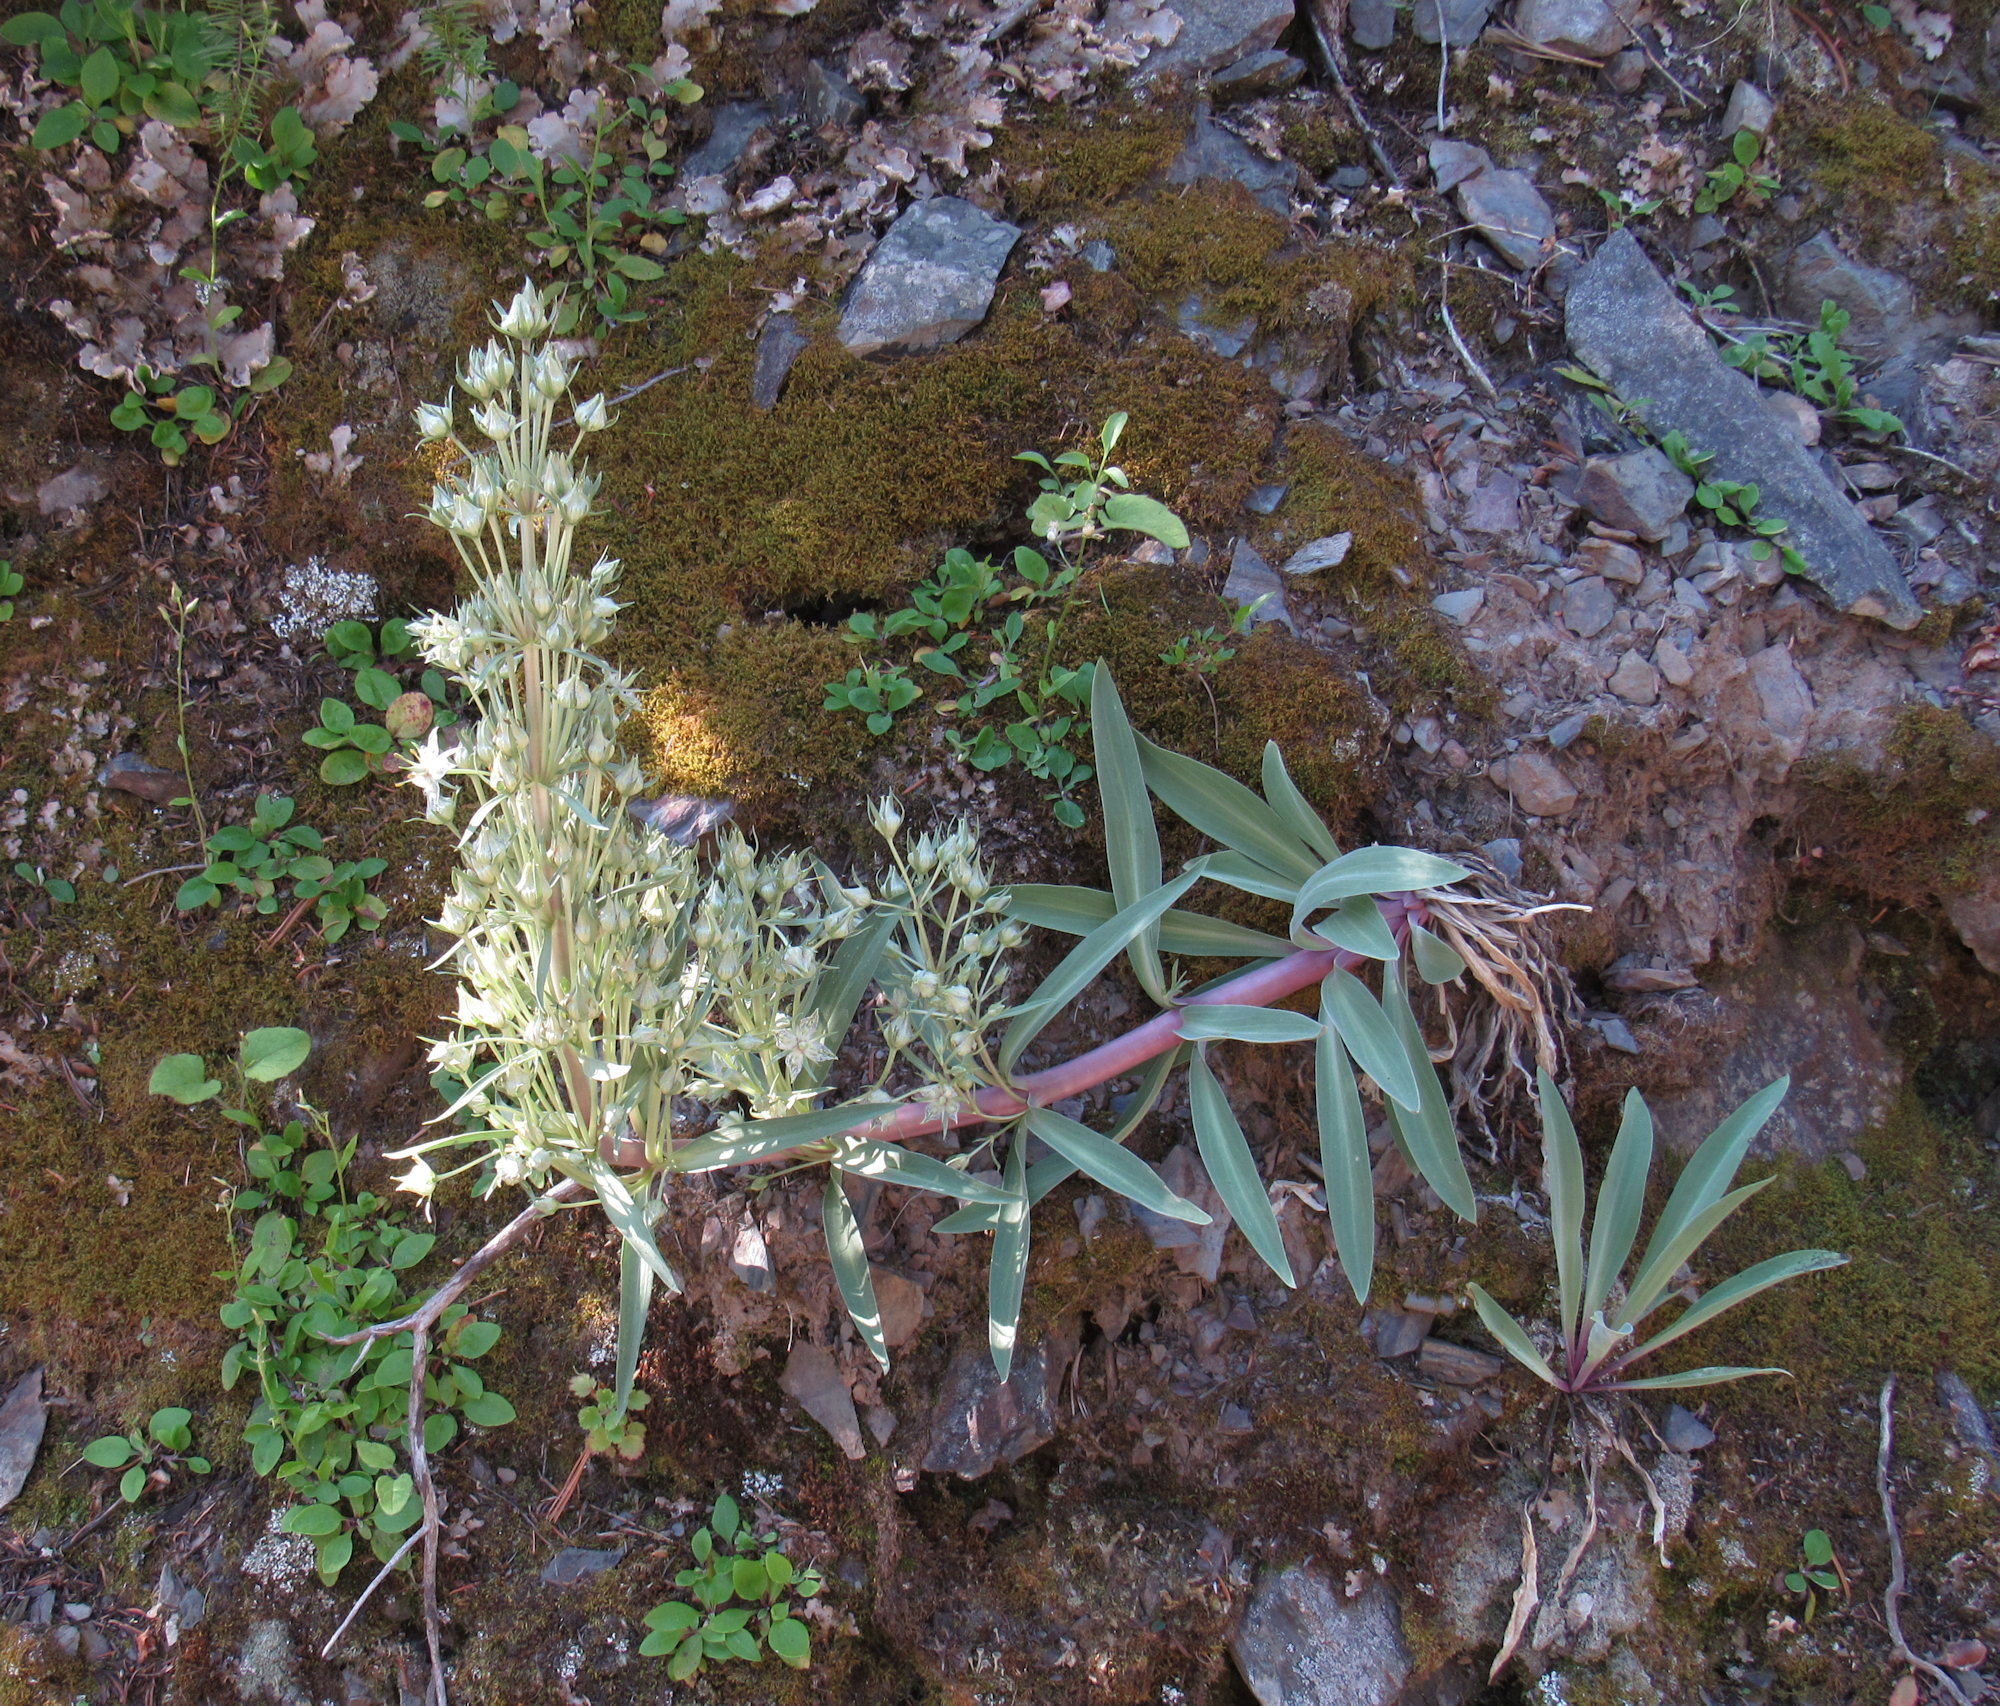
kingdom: Plantae
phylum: Tracheophyta
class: Magnoliopsida
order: Gentianales
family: Gentianaceae
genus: Frasera
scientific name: Frasera speciosa
